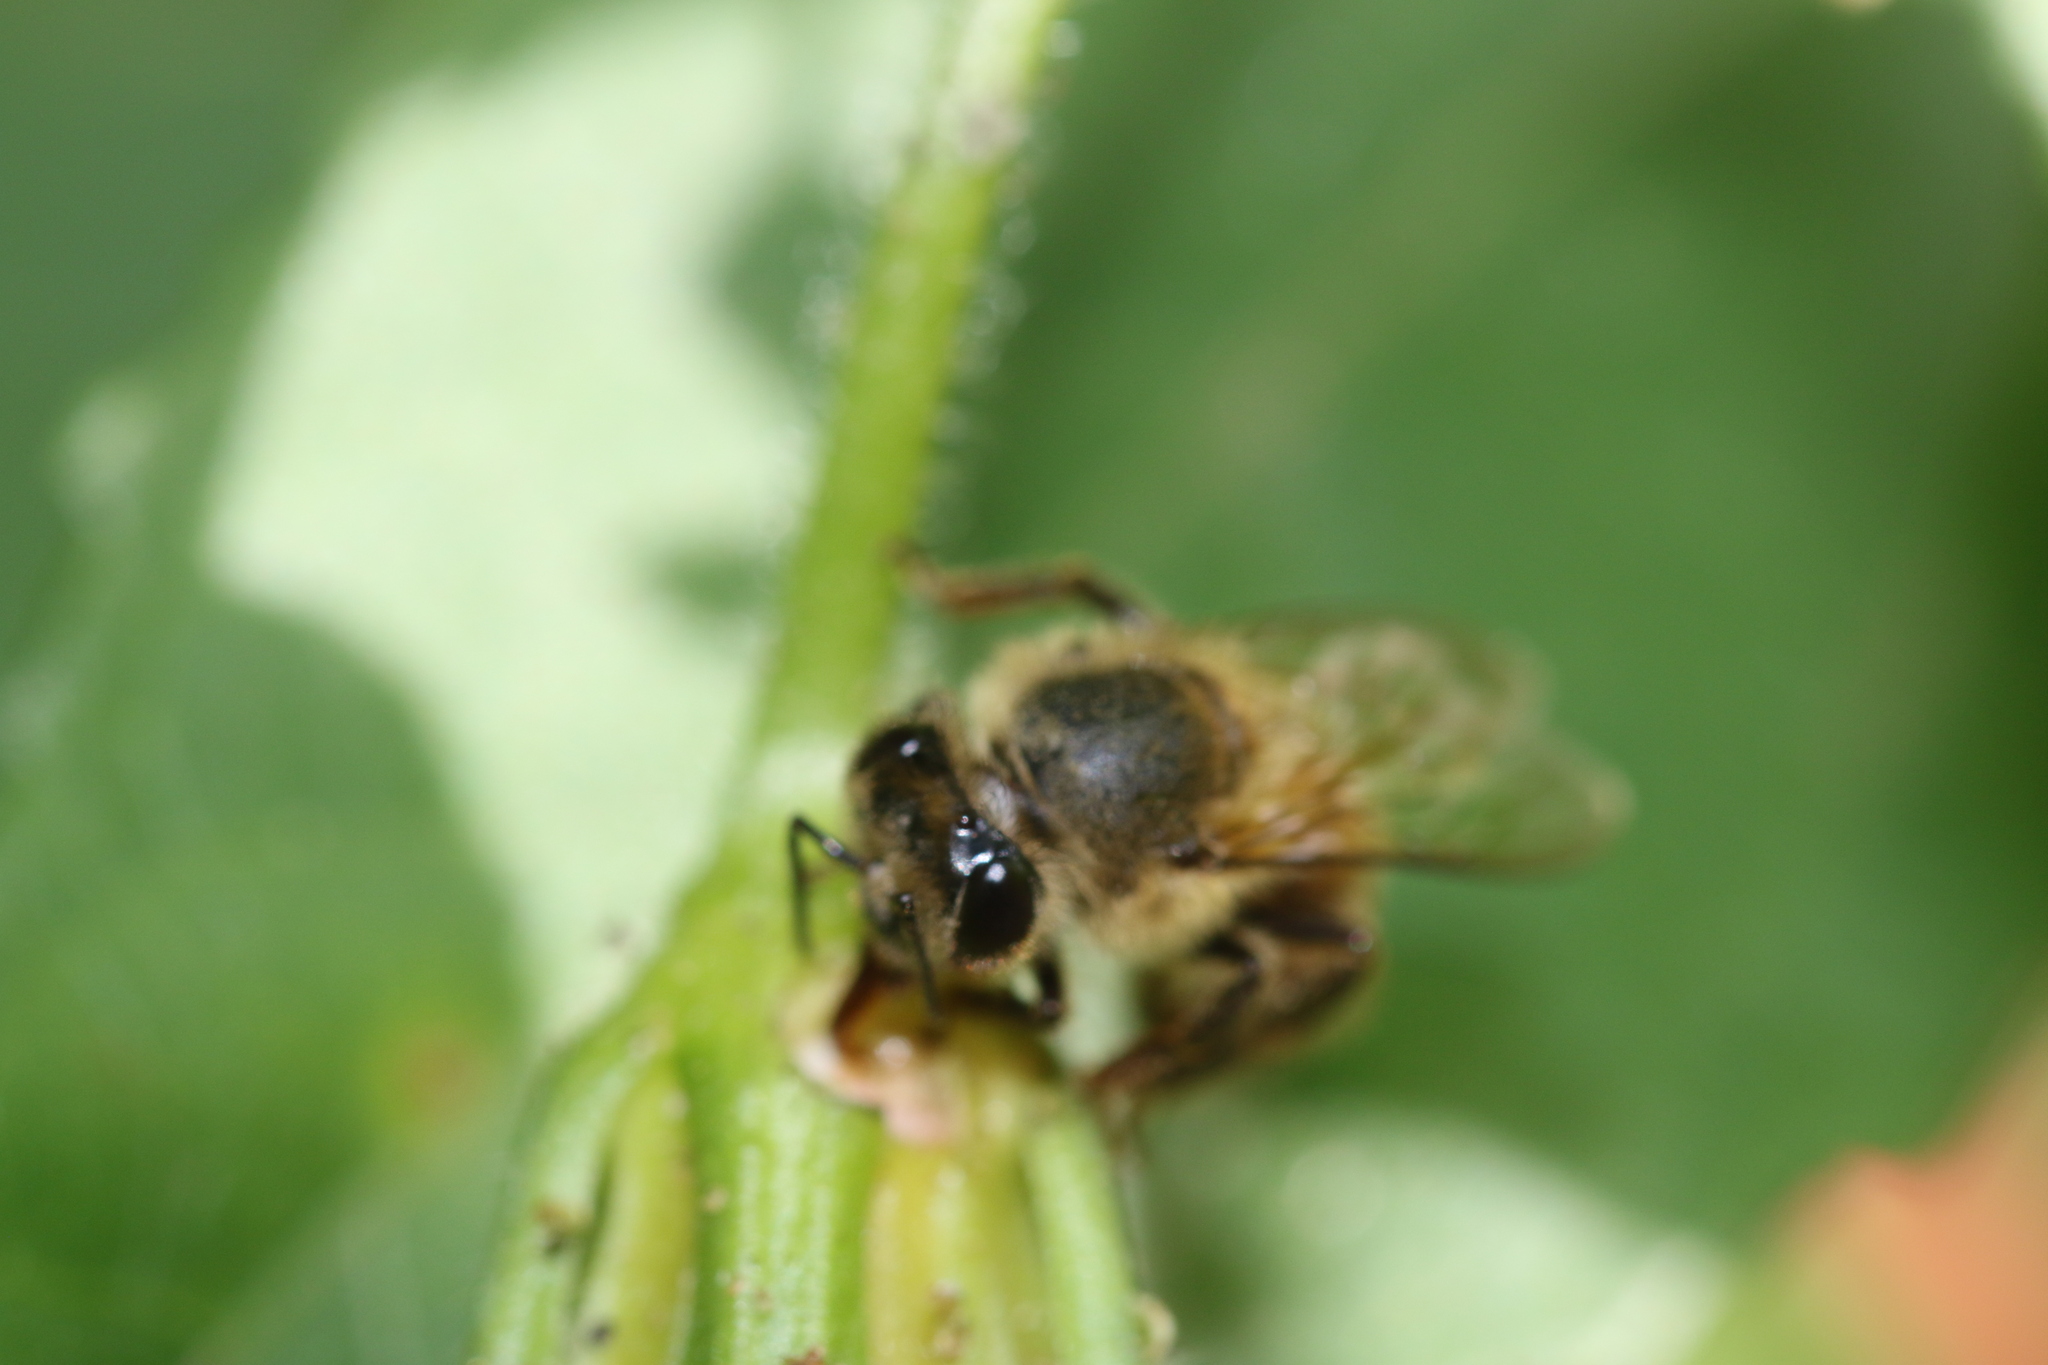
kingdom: Animalia
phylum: Arthropoda
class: Insecta
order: Hymenoptera
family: Apidae
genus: Apis
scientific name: Apis mellifera
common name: Honey bee
